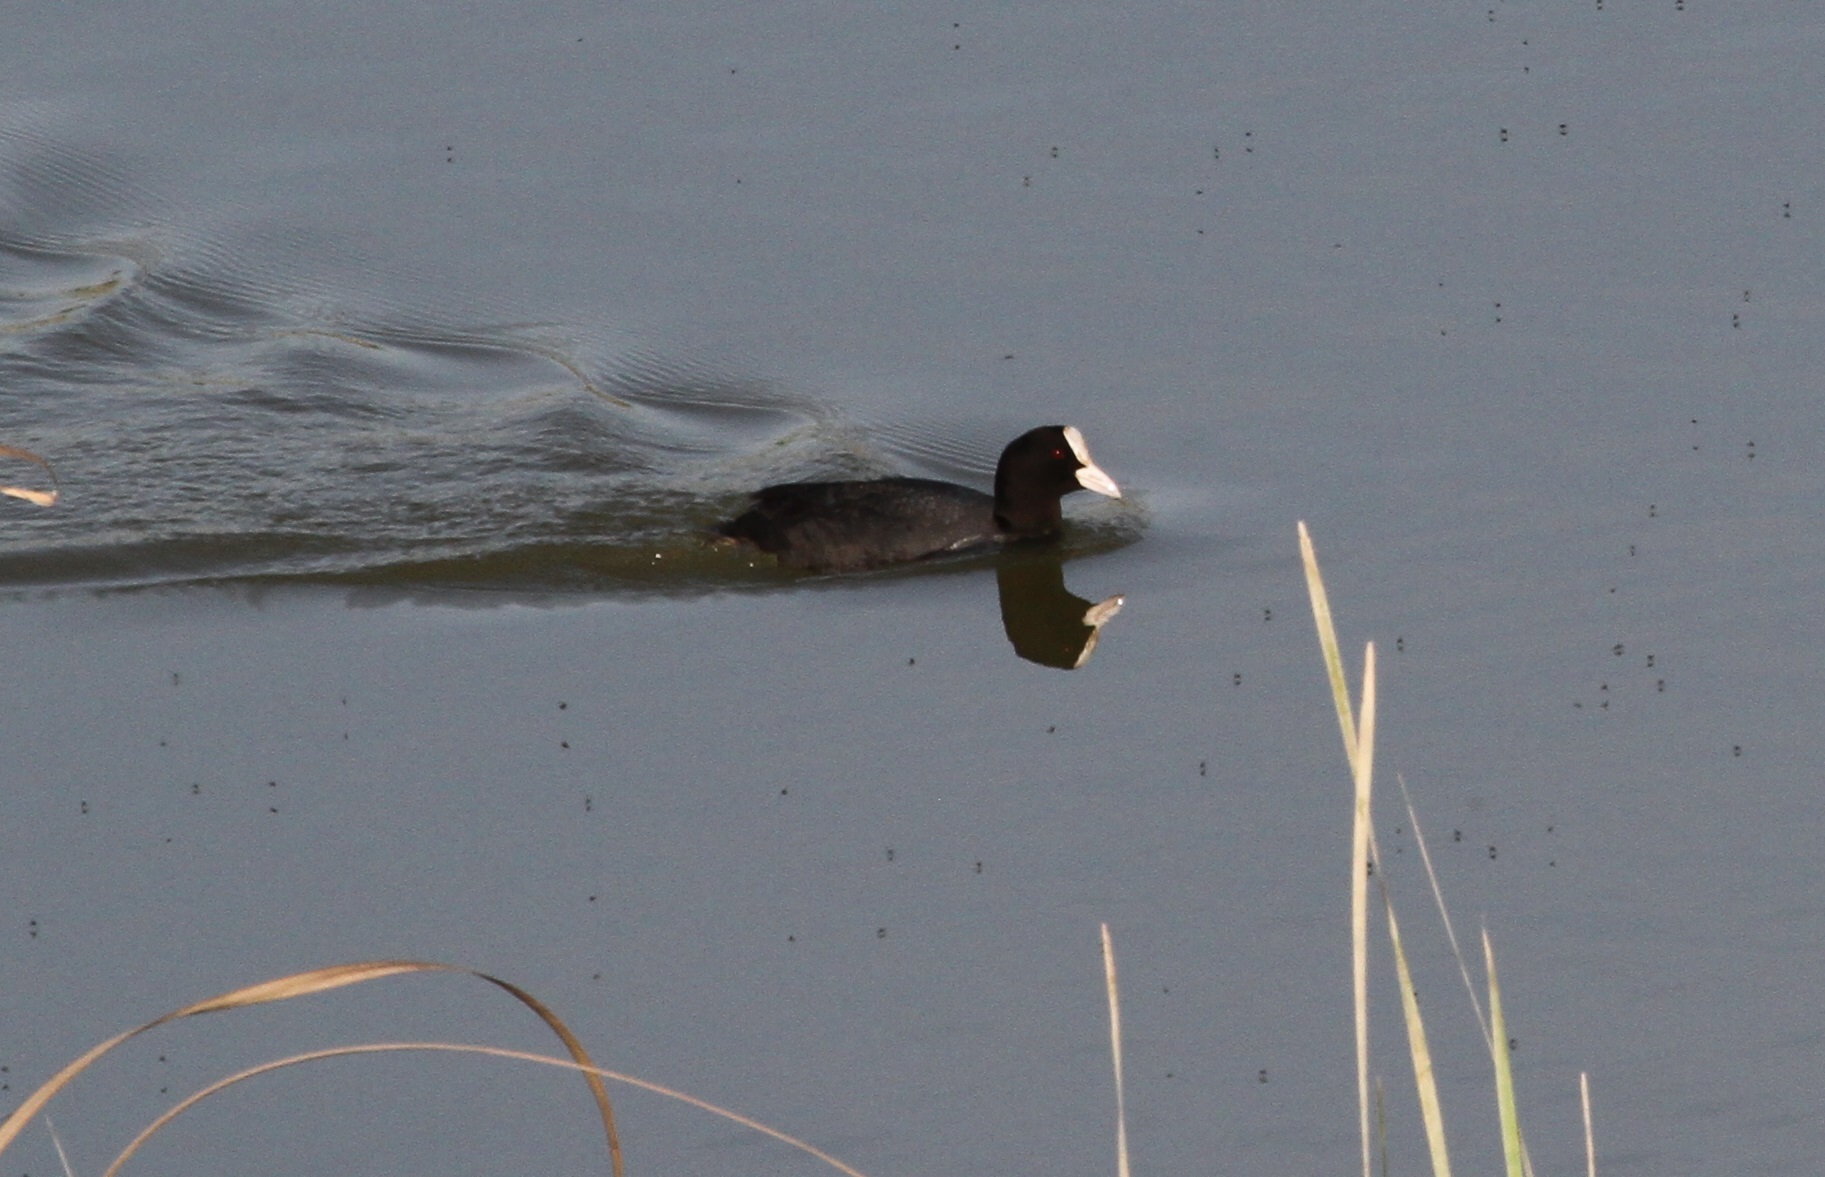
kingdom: Animalia
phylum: Chordata
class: Aves
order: Gruiformes
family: Rallidae
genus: Fulica
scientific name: Fulica atra
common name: Eurasian coot
